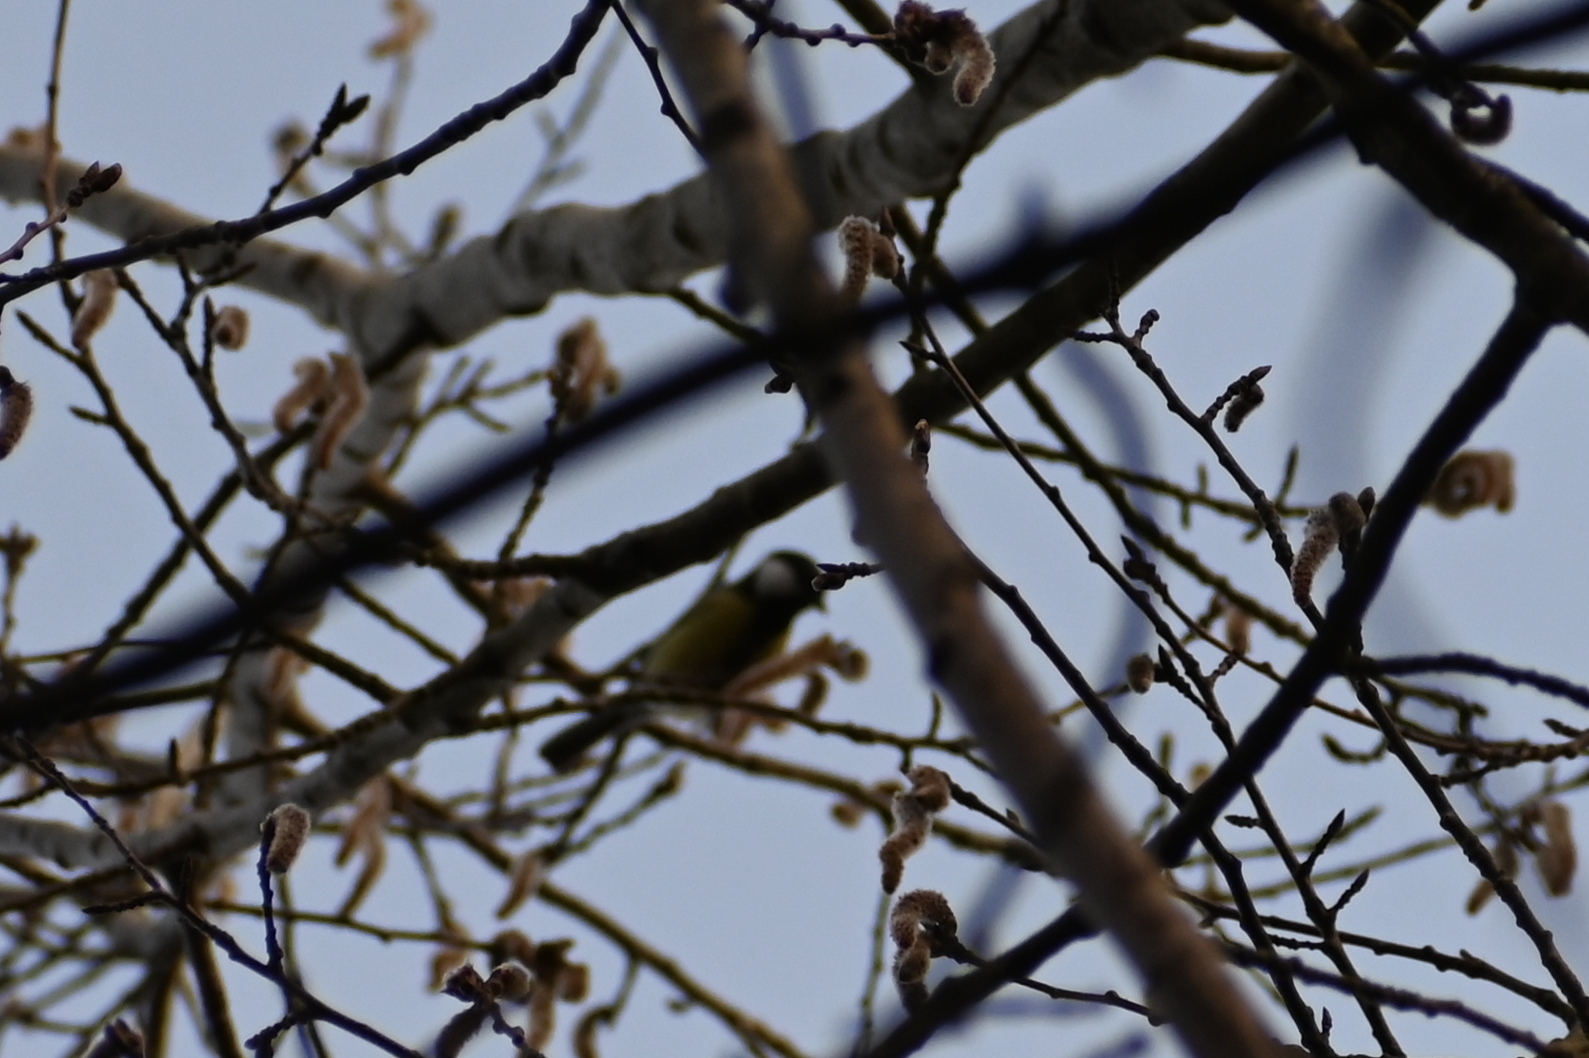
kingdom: Animalia
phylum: Chordata
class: Aves
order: Passeriformes
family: Paridae
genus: Parus
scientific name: Parus major
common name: Great tit
